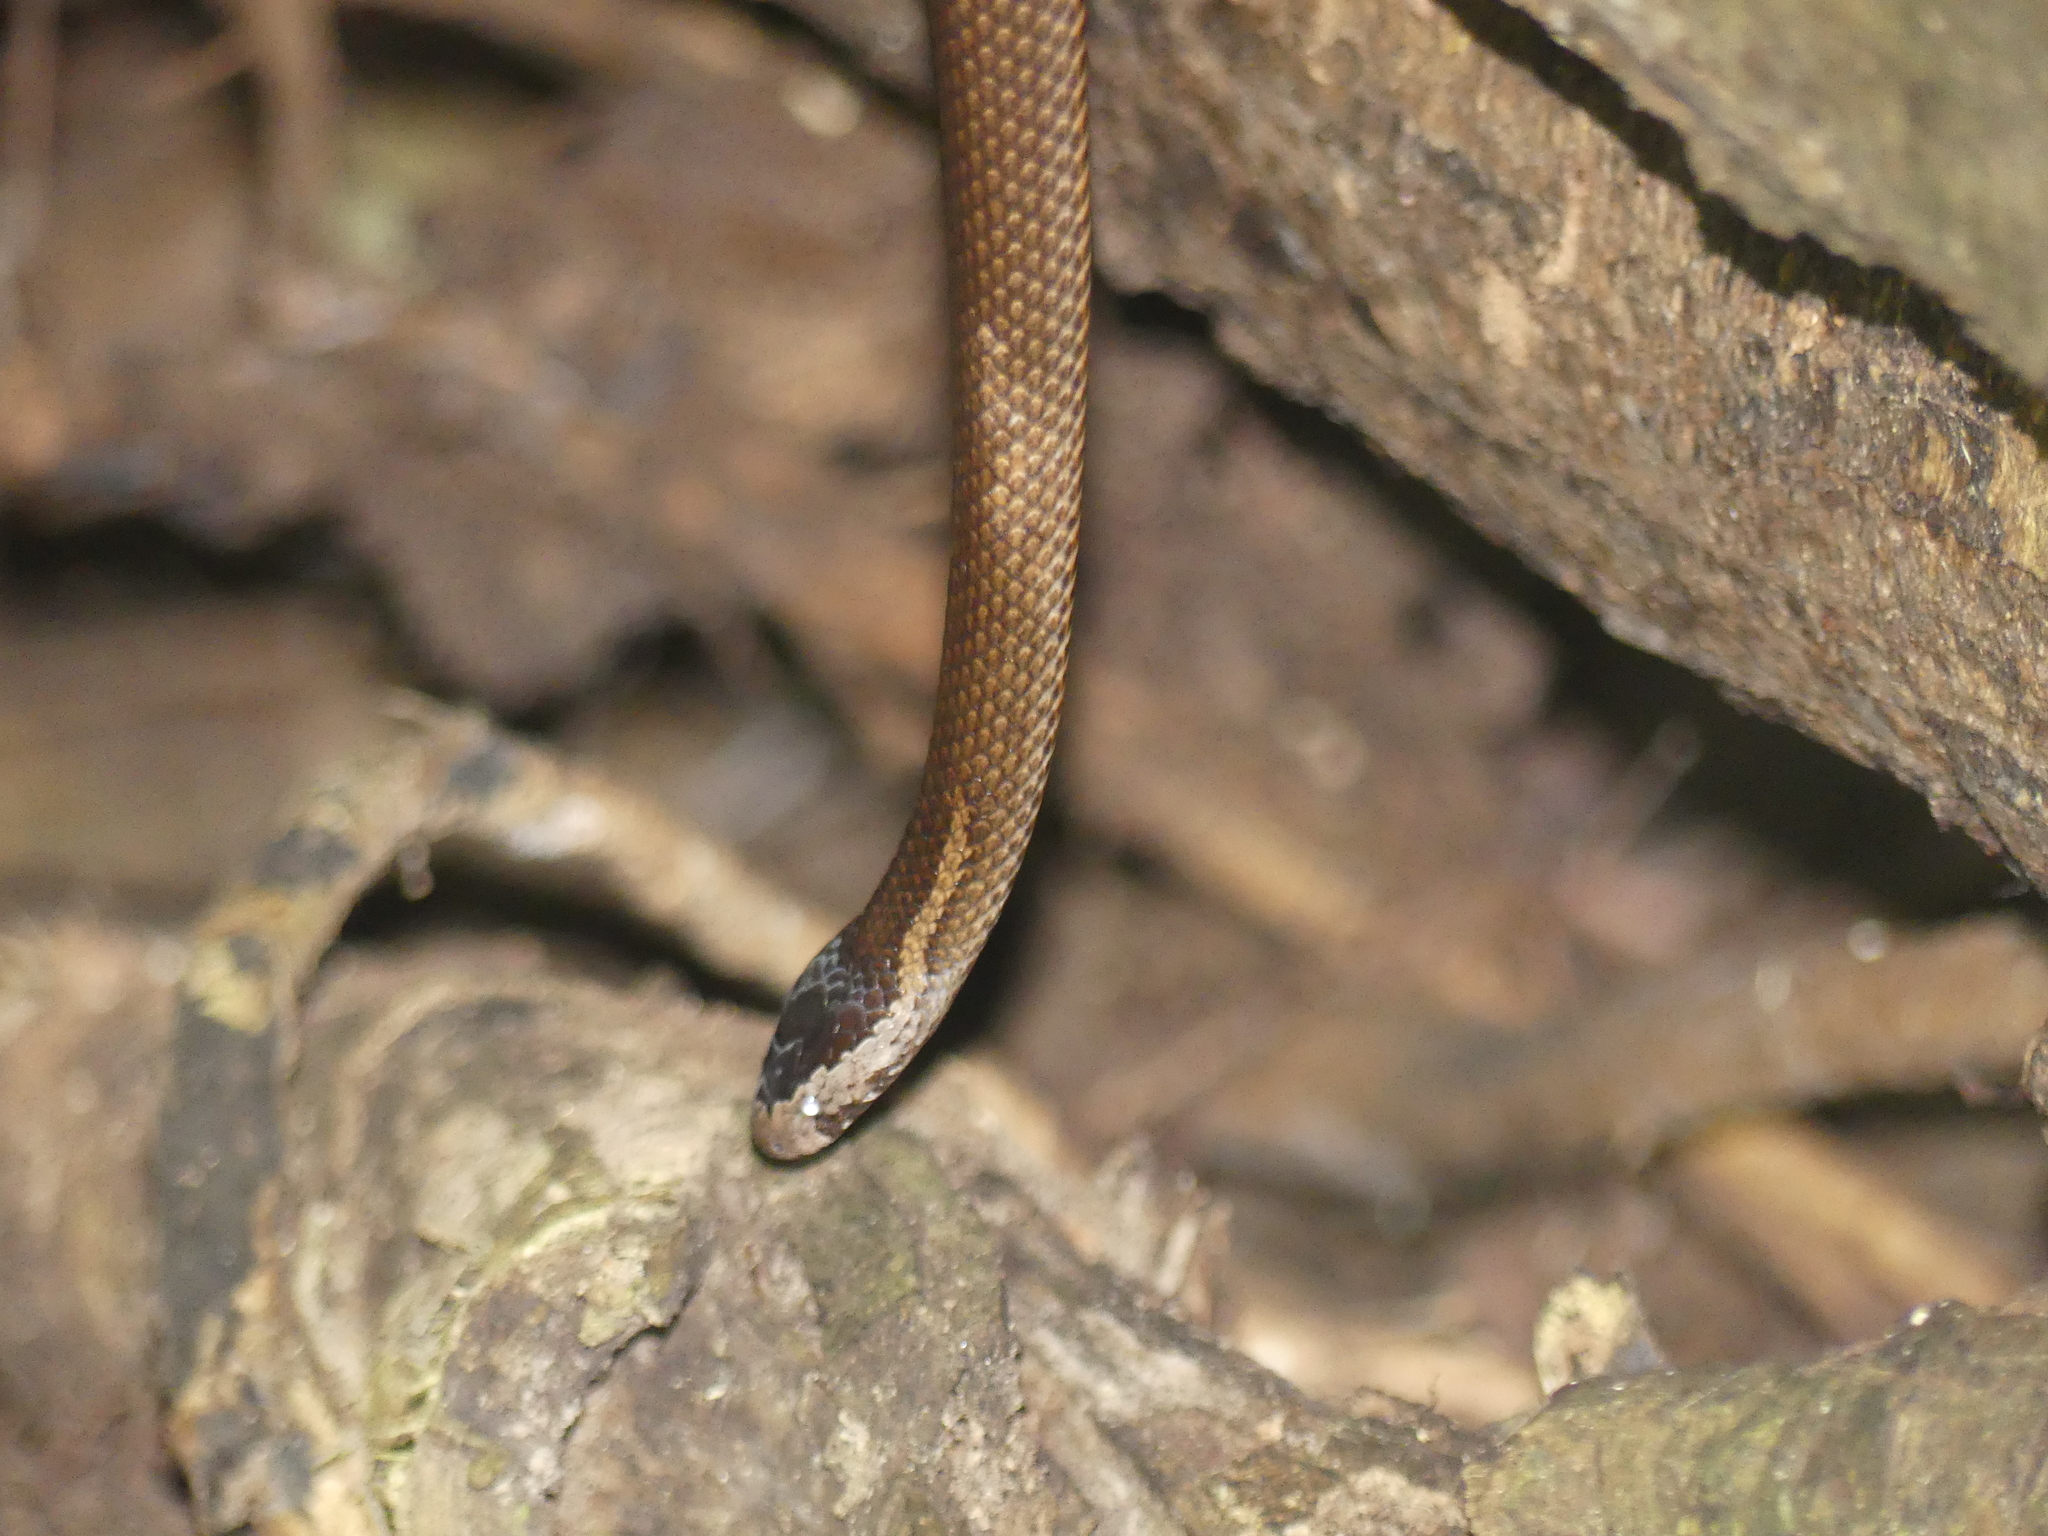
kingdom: Animalia
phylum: Chordata
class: Squamata
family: Elapidae
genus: Cacophis
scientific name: Cacophis squamulosus
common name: Golden crowned snake
